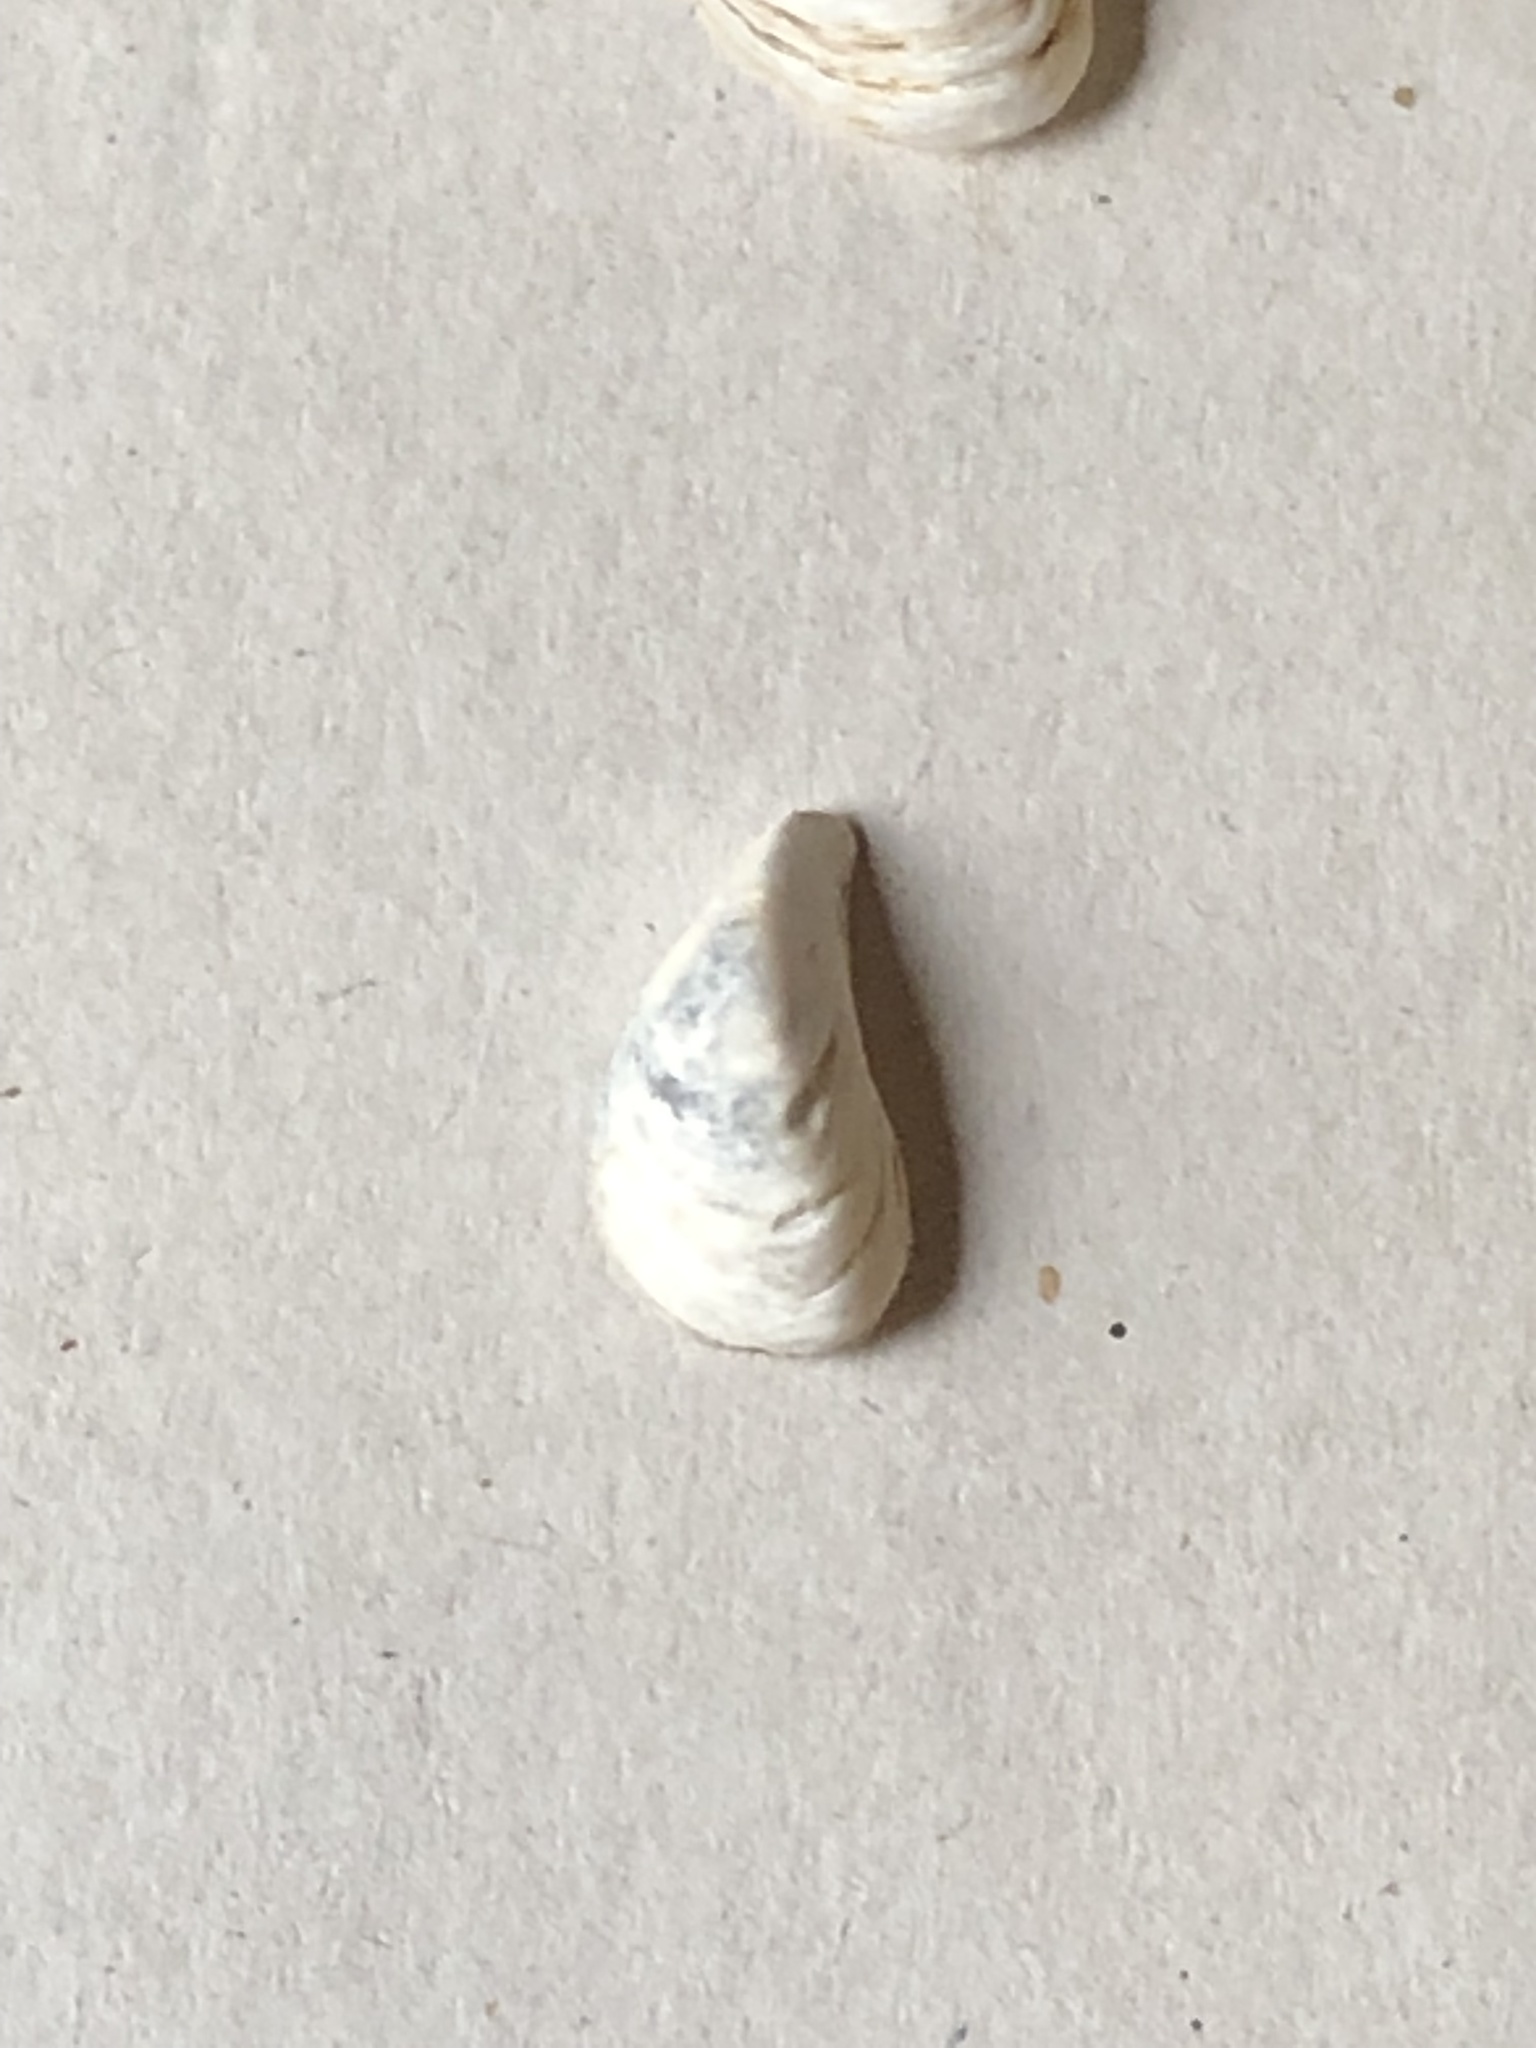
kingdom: Animalia
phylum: Mollusca
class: Bivalvia
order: Myida
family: Dreissenidae
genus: Dreissena
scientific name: Dreissena bugensis
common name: Quagga mussel
